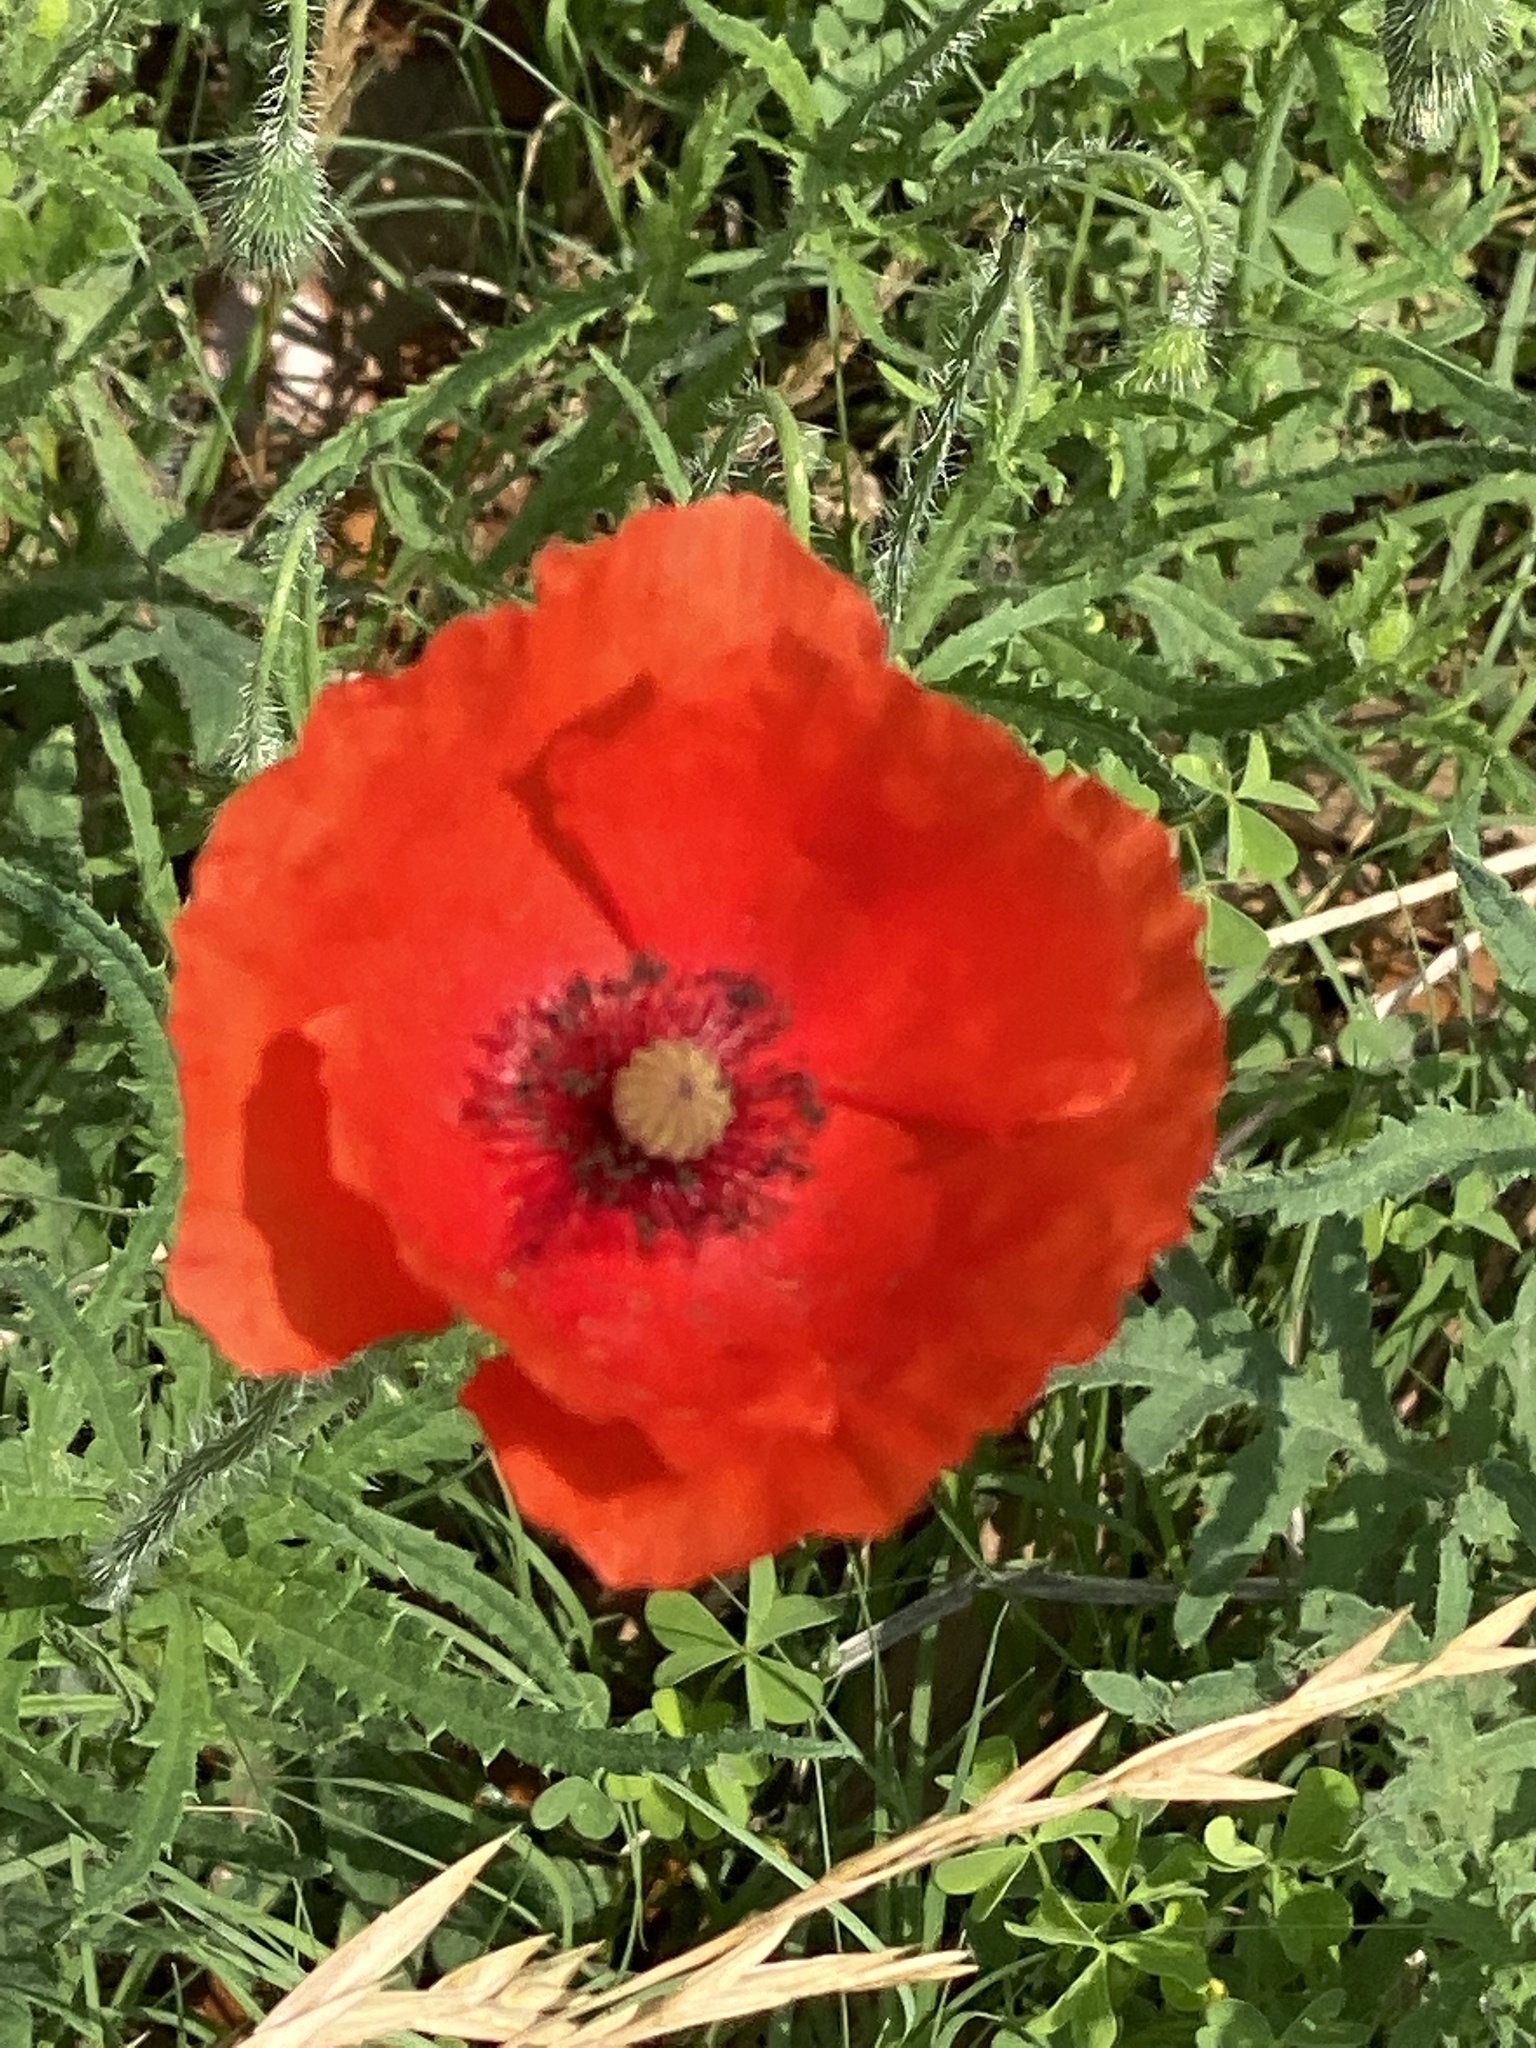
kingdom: Plantae
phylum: Tracheophyta
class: Magnoliopsida
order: Ranunculales
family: Papaveraceae
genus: Papaver
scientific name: Papaver rhoeas
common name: Corn poppy
